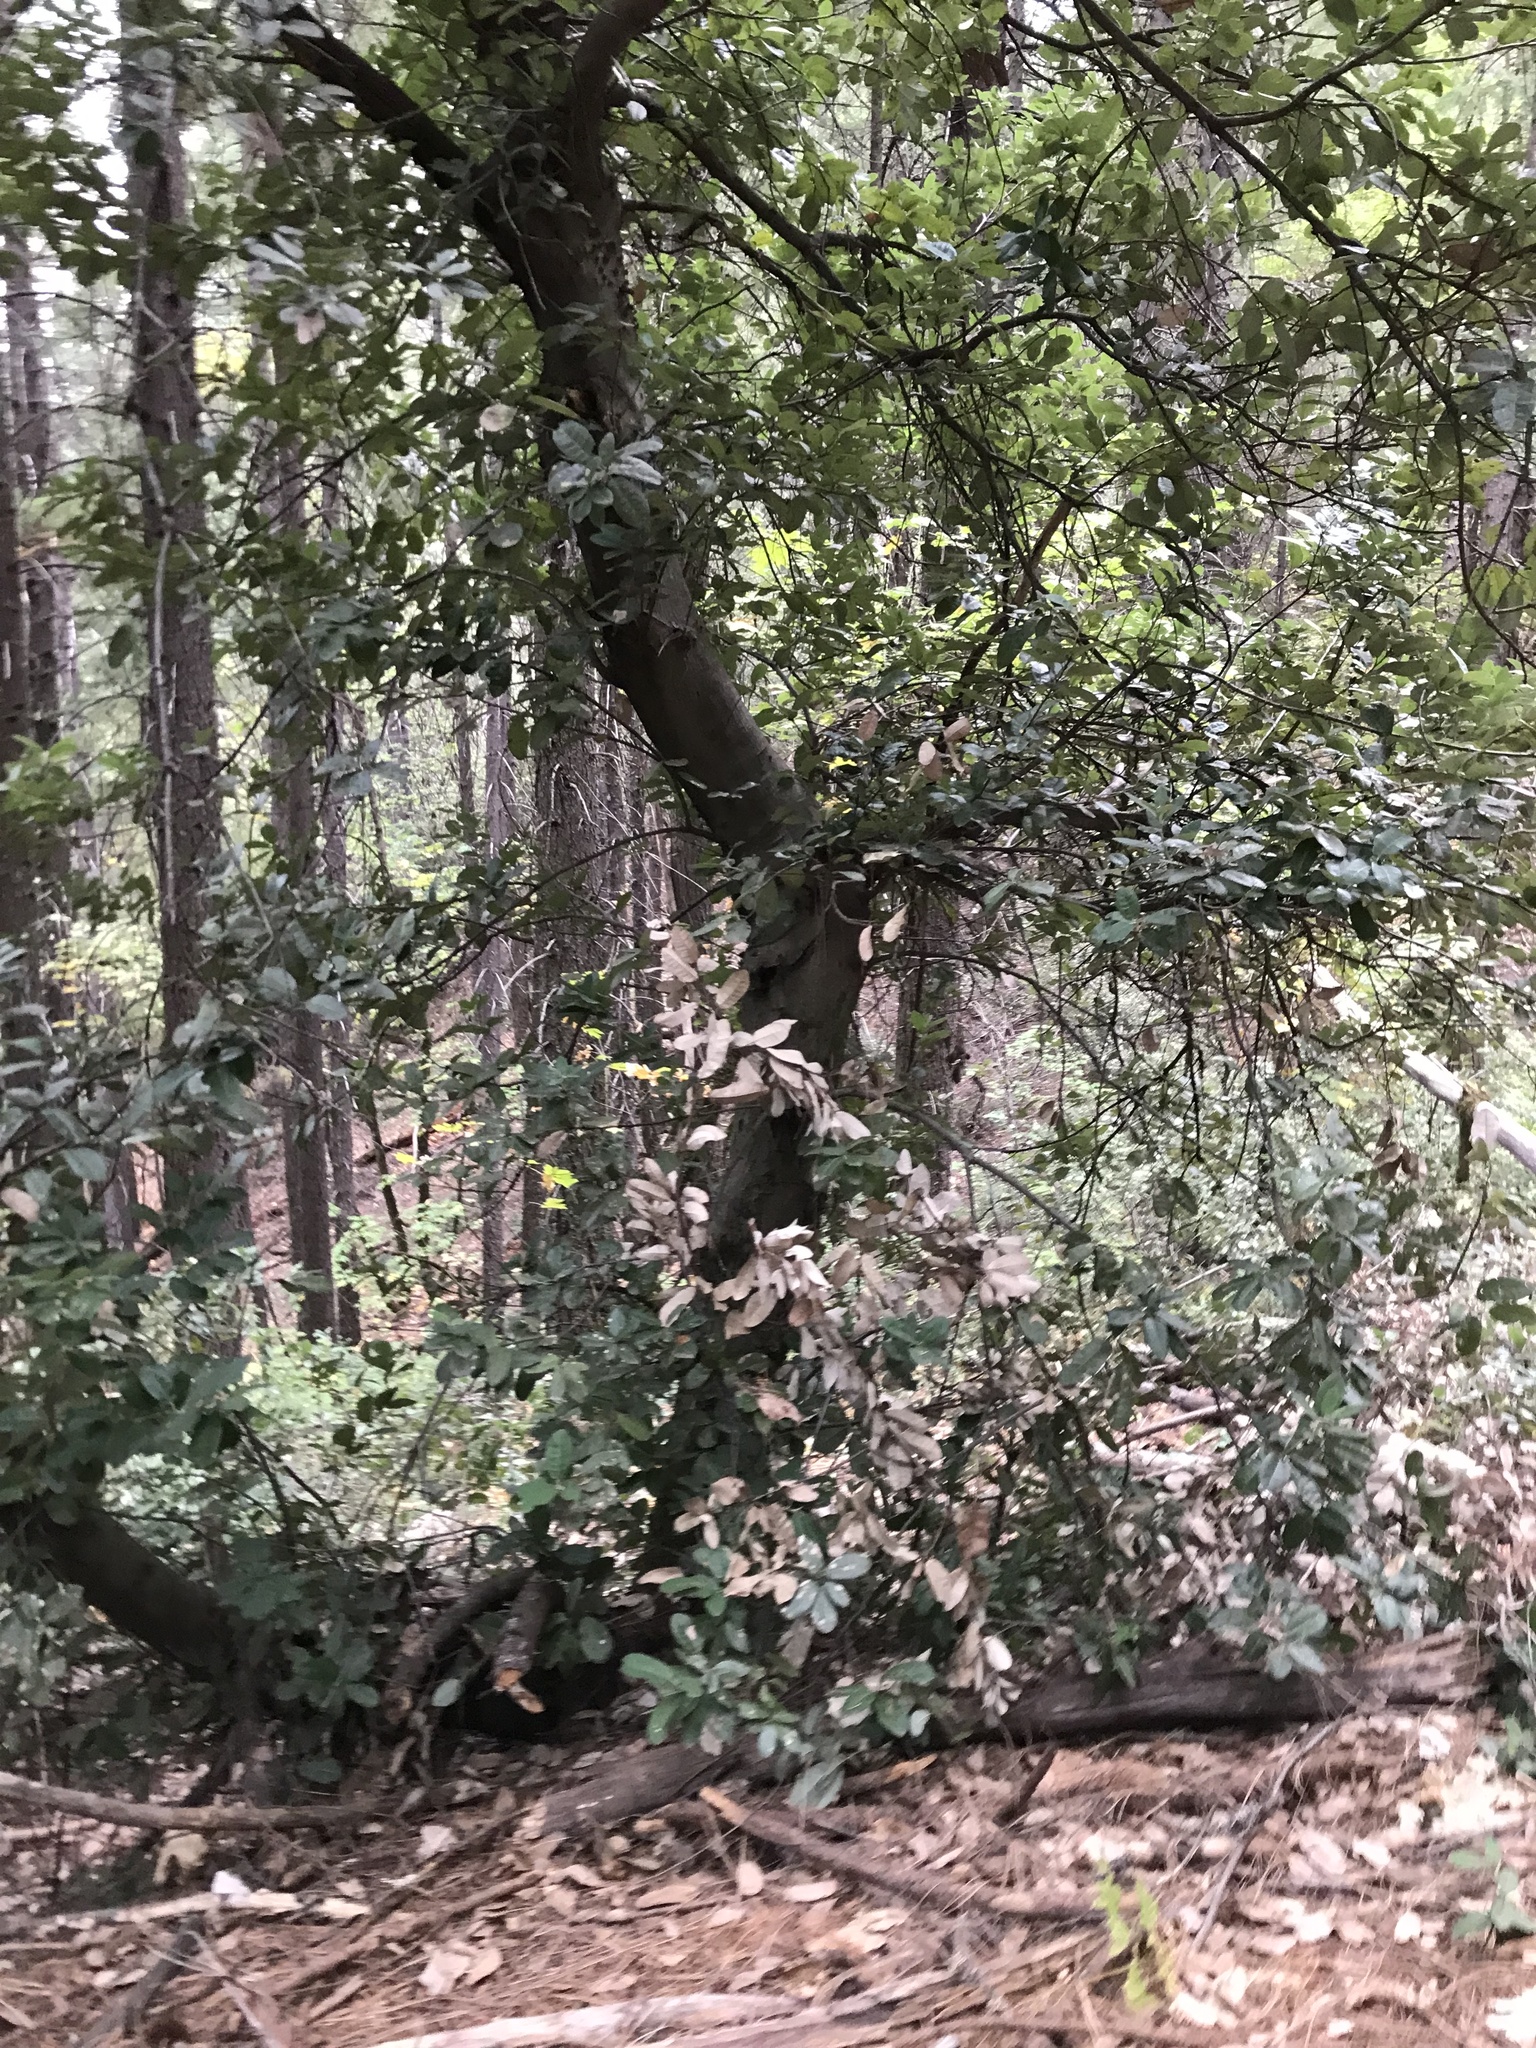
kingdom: Plantae
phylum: Tracheophyta
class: Magnoliopsida
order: Fagales
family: Fagaceae
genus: Notholithocarpus
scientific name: Notholithocarpus densiflorus
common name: Tan bark oak
